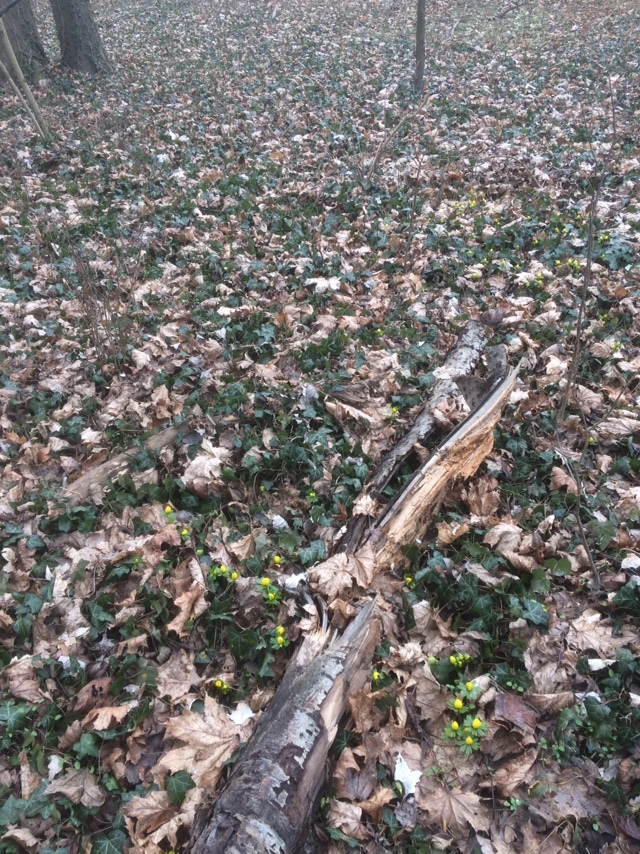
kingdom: Plantae
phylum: Tracheophyta
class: Magnoliopsida
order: Ranunculales
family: Ranunculaceae
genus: Eranthis
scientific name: Eranthis hyemalis
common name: Winter aconite
